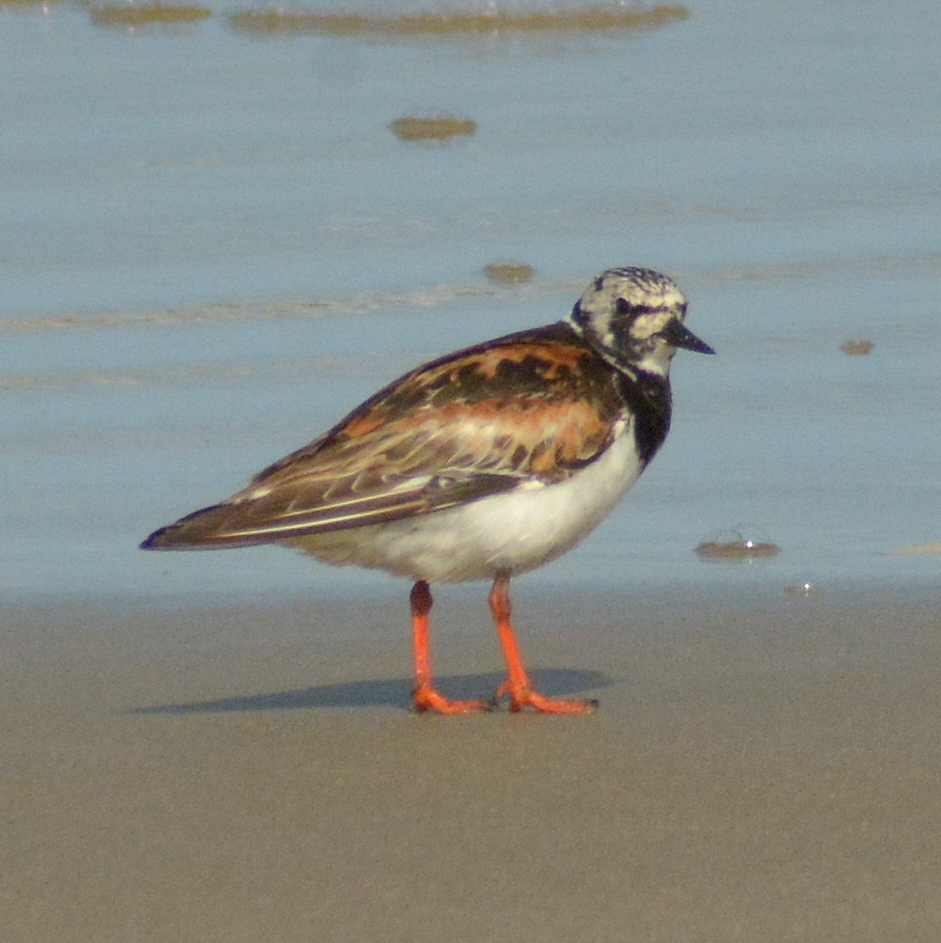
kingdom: Animalia
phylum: Chordata
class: Aves
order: Charadriiformes
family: Scolopacidae
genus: Arenaria
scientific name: Arenaria interpres
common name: Ruddy turnstone
